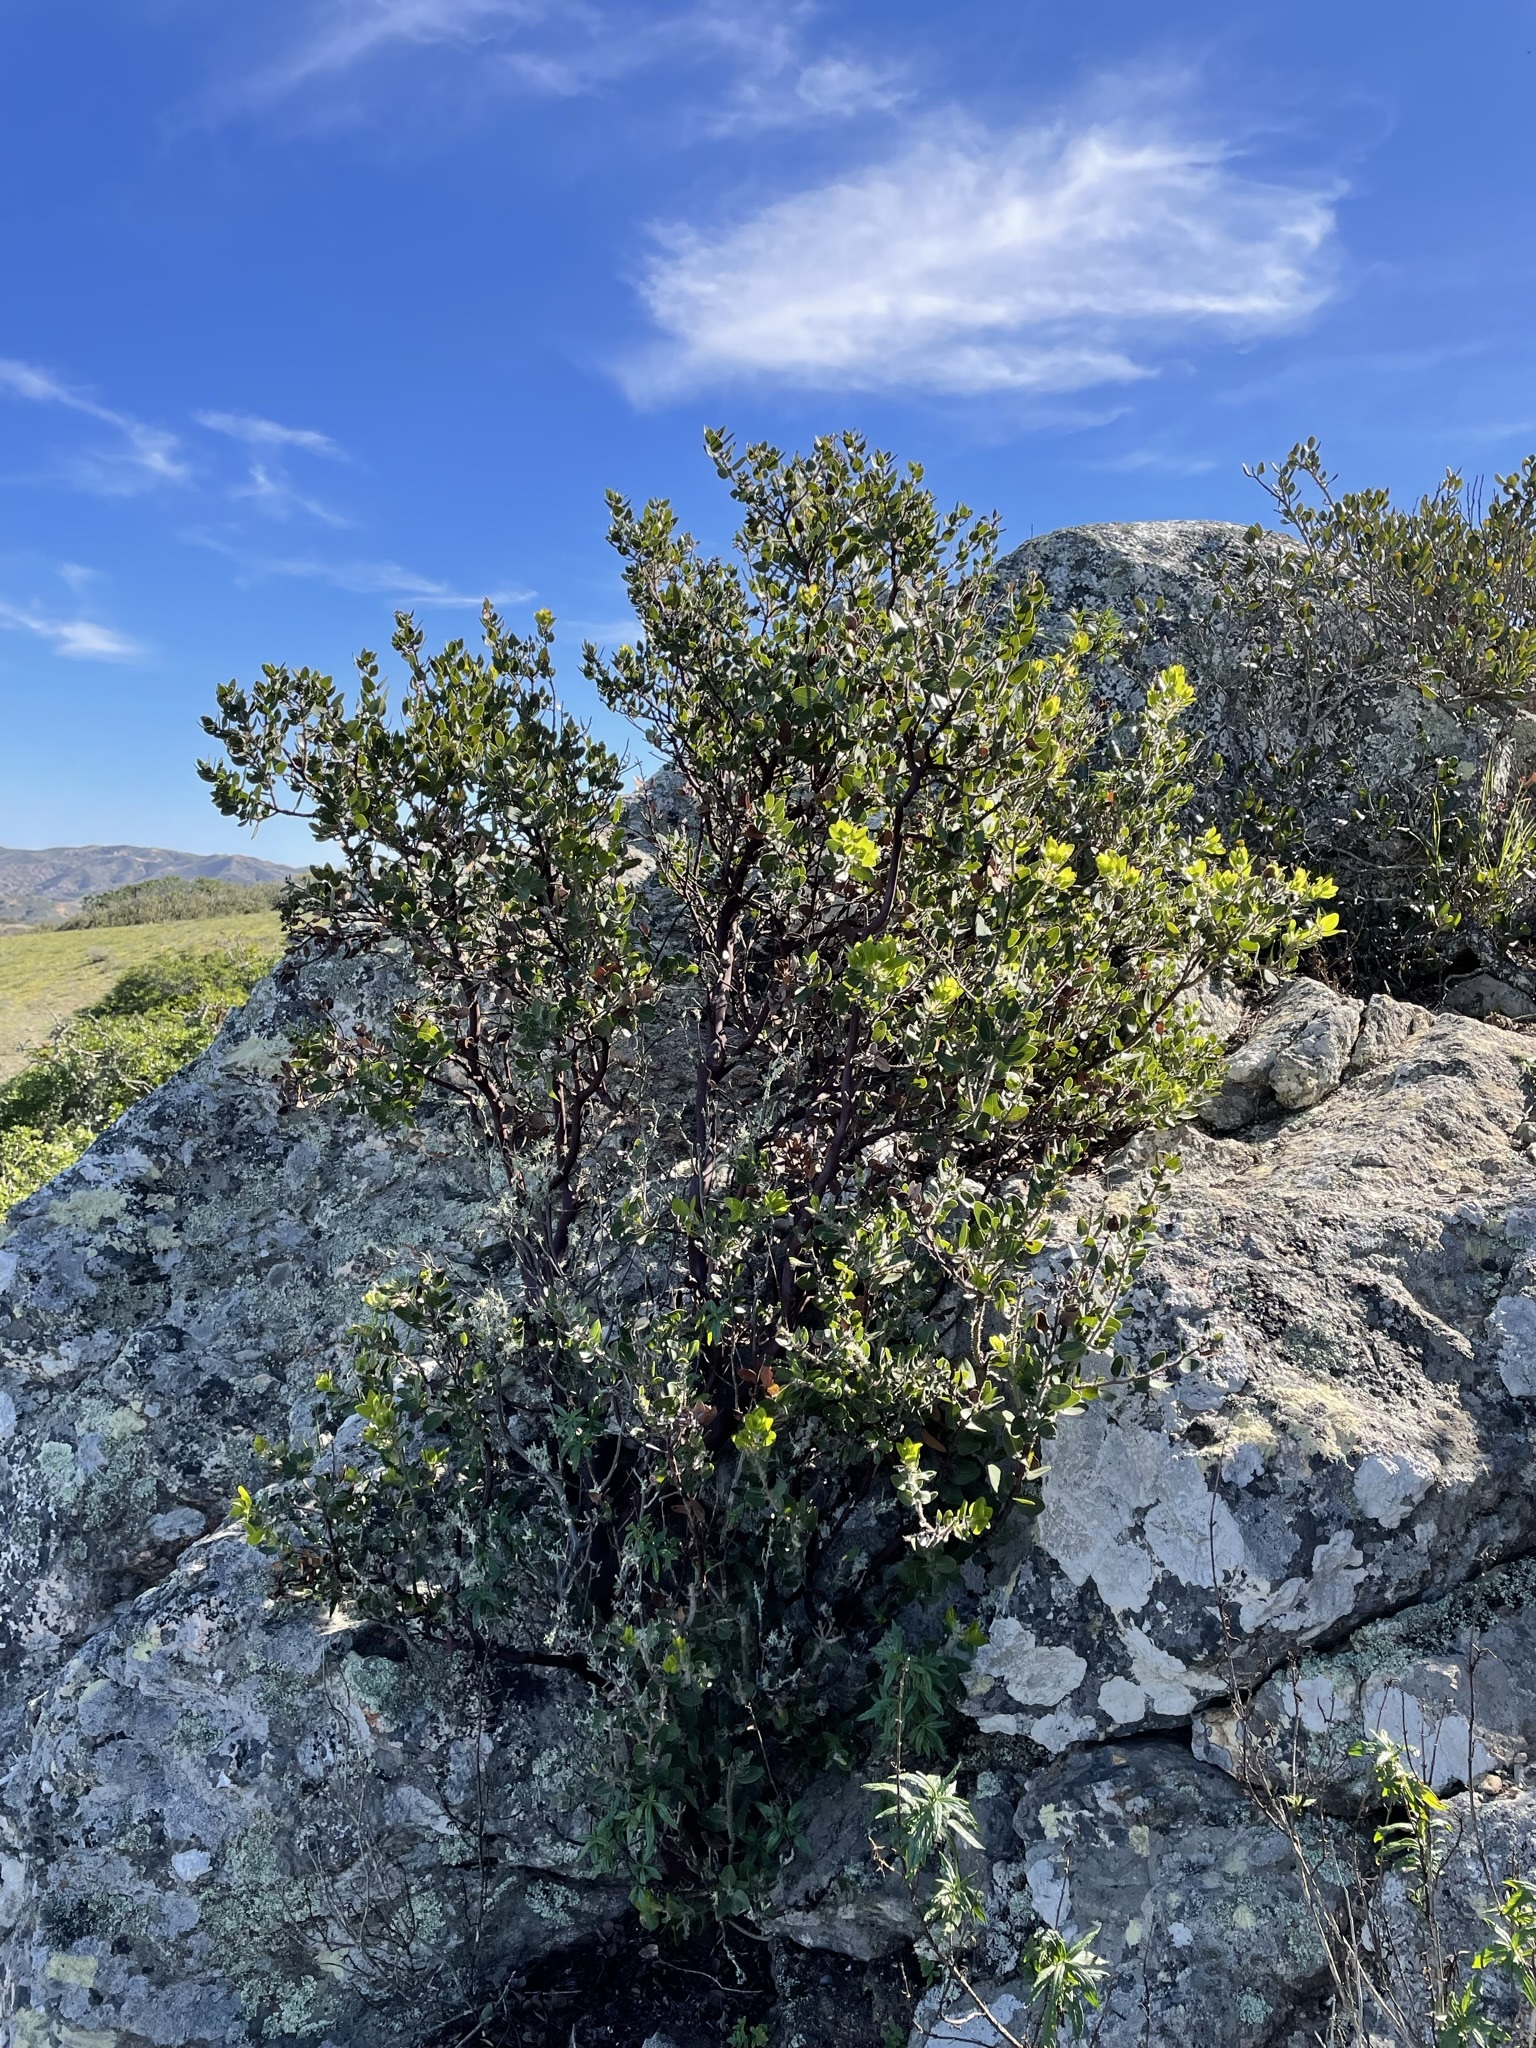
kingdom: Plantae
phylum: Tracheophyta
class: Magnoliopsida
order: Ericales
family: Ericaceae
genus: Arctostaphylos
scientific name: Arctostaphylos catalinae
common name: Santa catalina island manzanita
